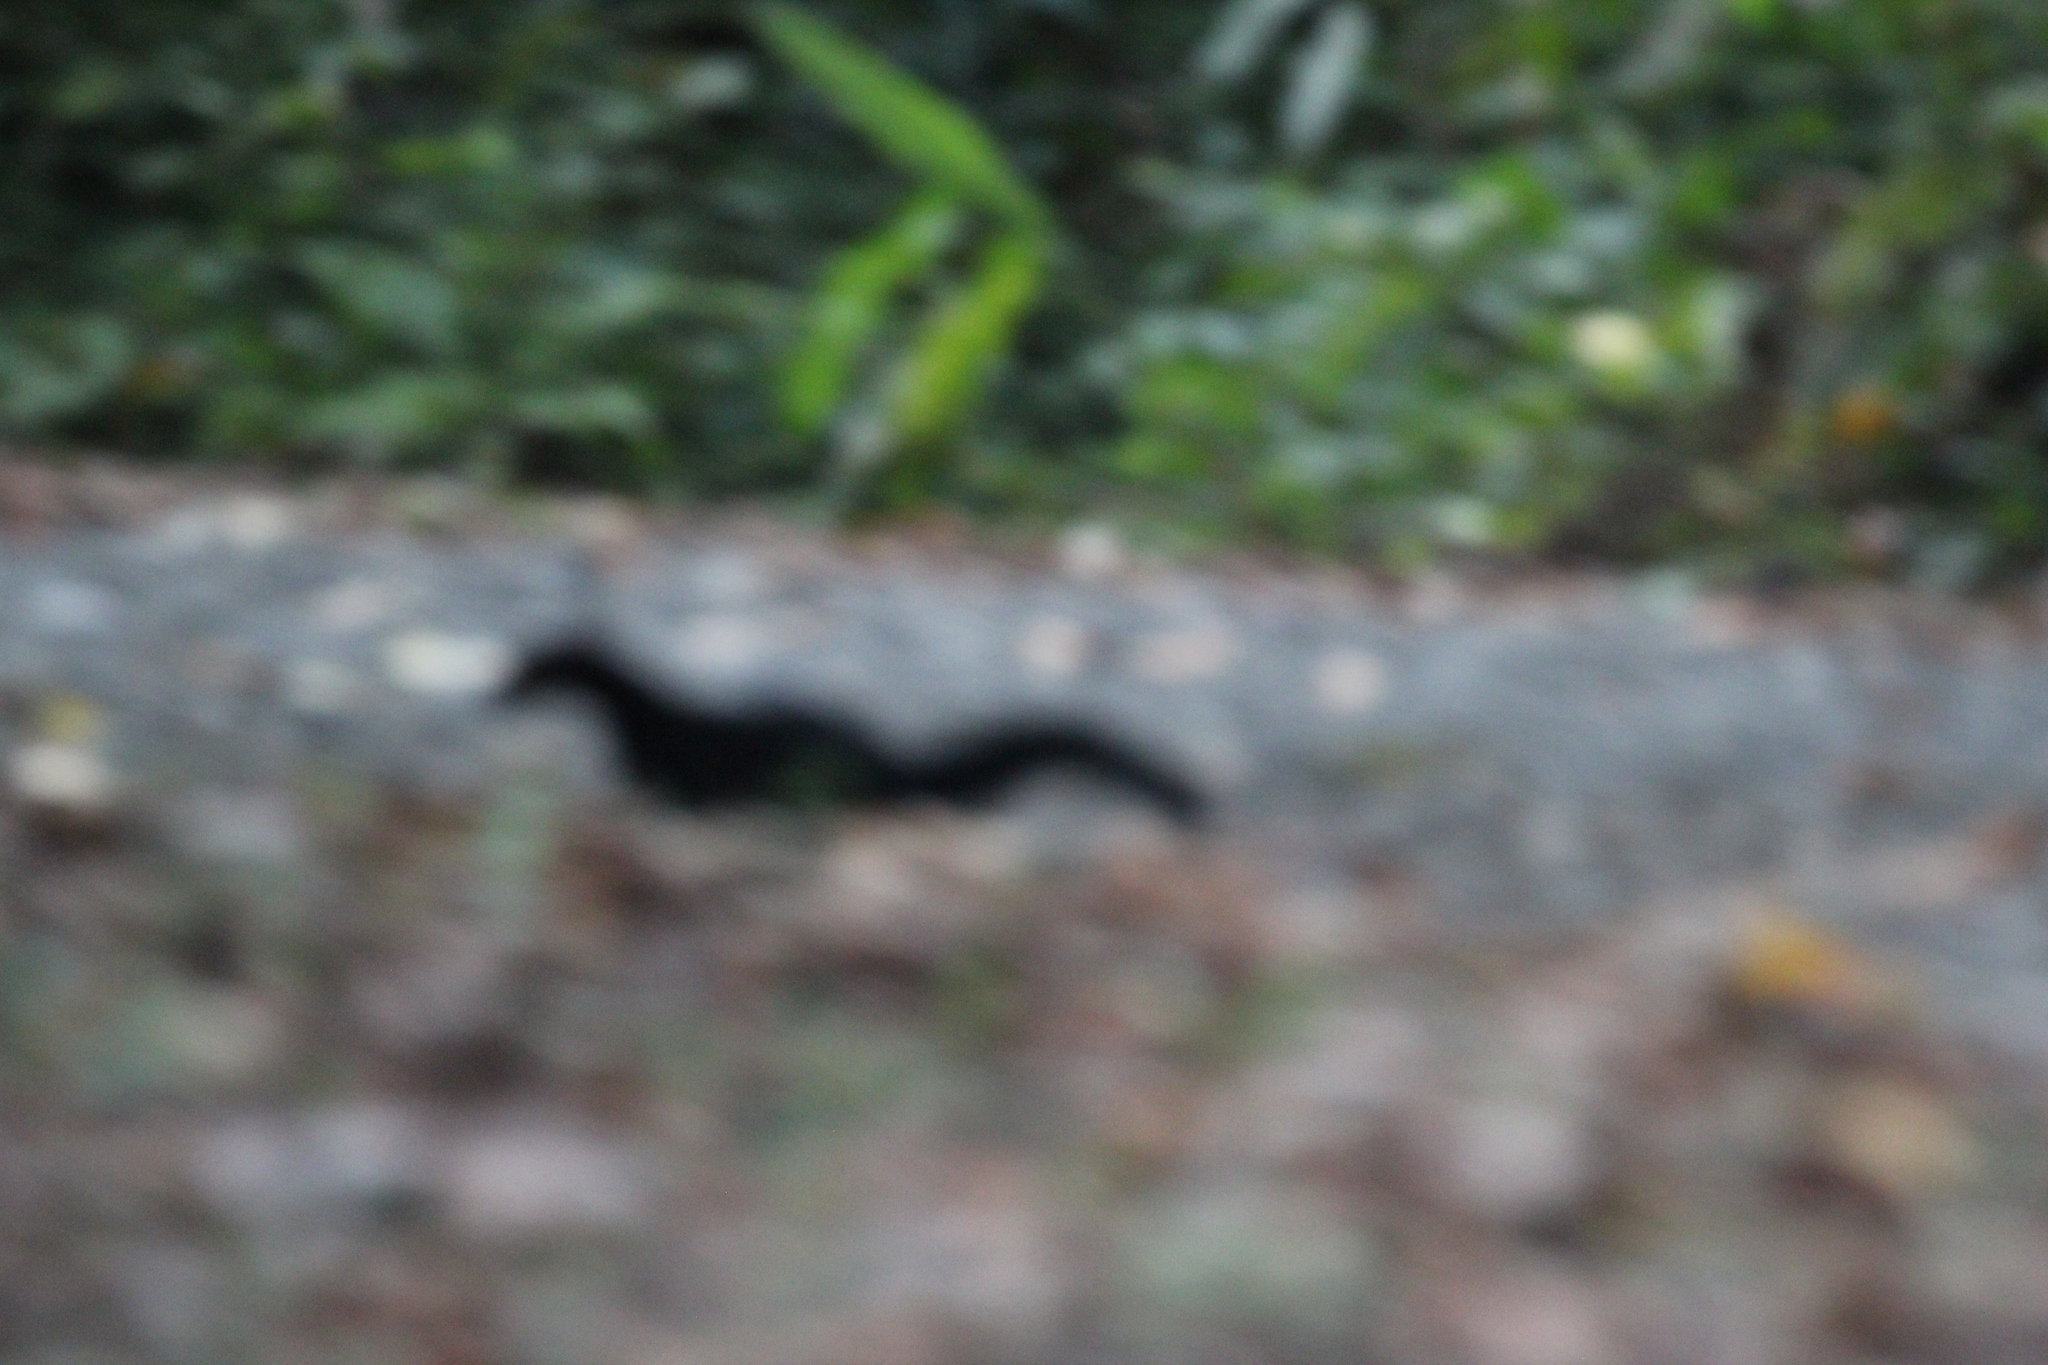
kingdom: Animalia
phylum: Chordata
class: Mammalia
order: Carnivora
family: Mustelidae
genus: Eira
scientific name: Eira barbara
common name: Tayra
